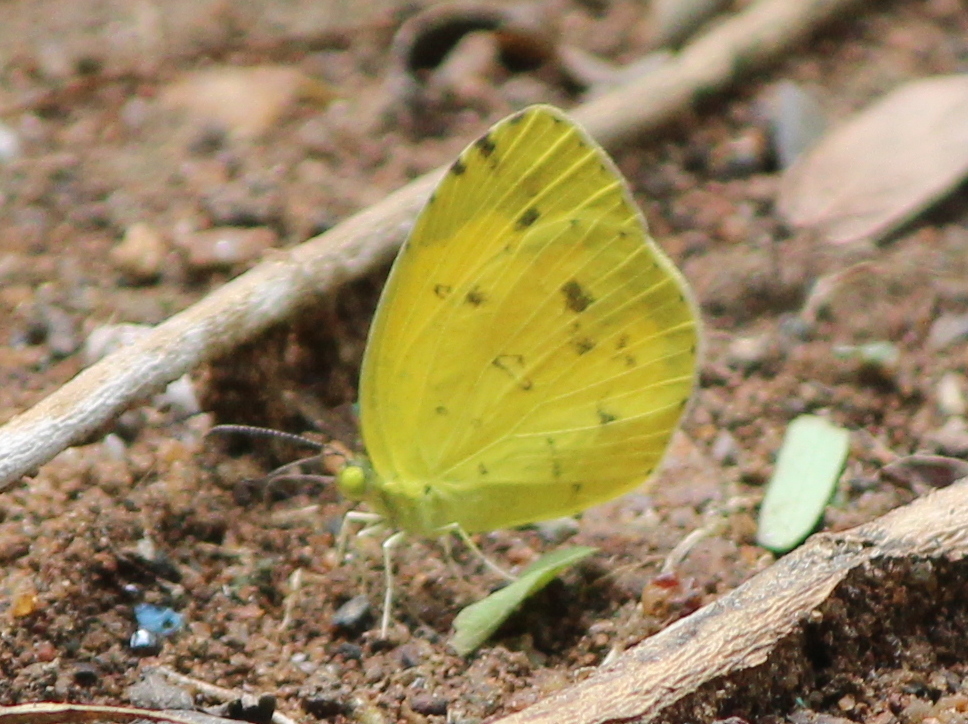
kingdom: Animalia
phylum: Arthropoda
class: Insecta
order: Lepidoptera
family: Pieridae
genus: Eurema
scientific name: Eurema hecabe
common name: Pale grass yellow
